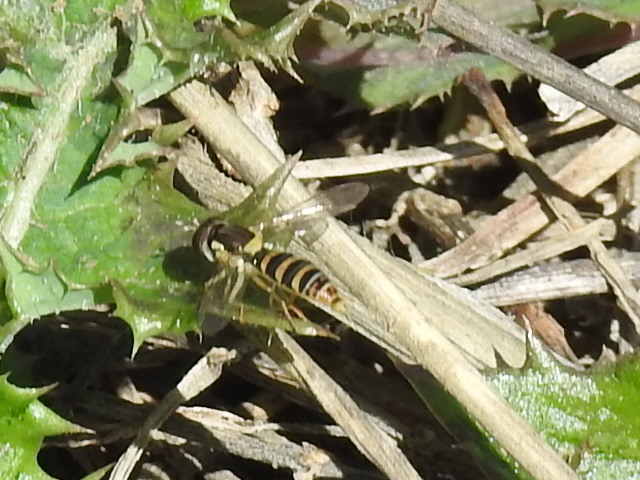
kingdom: Animalia
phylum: Arthropoda
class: Insecta
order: Diptera
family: Syrphidae
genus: Sphaerophoria
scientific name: Sphaerophoria contigua
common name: Tufted globetail
